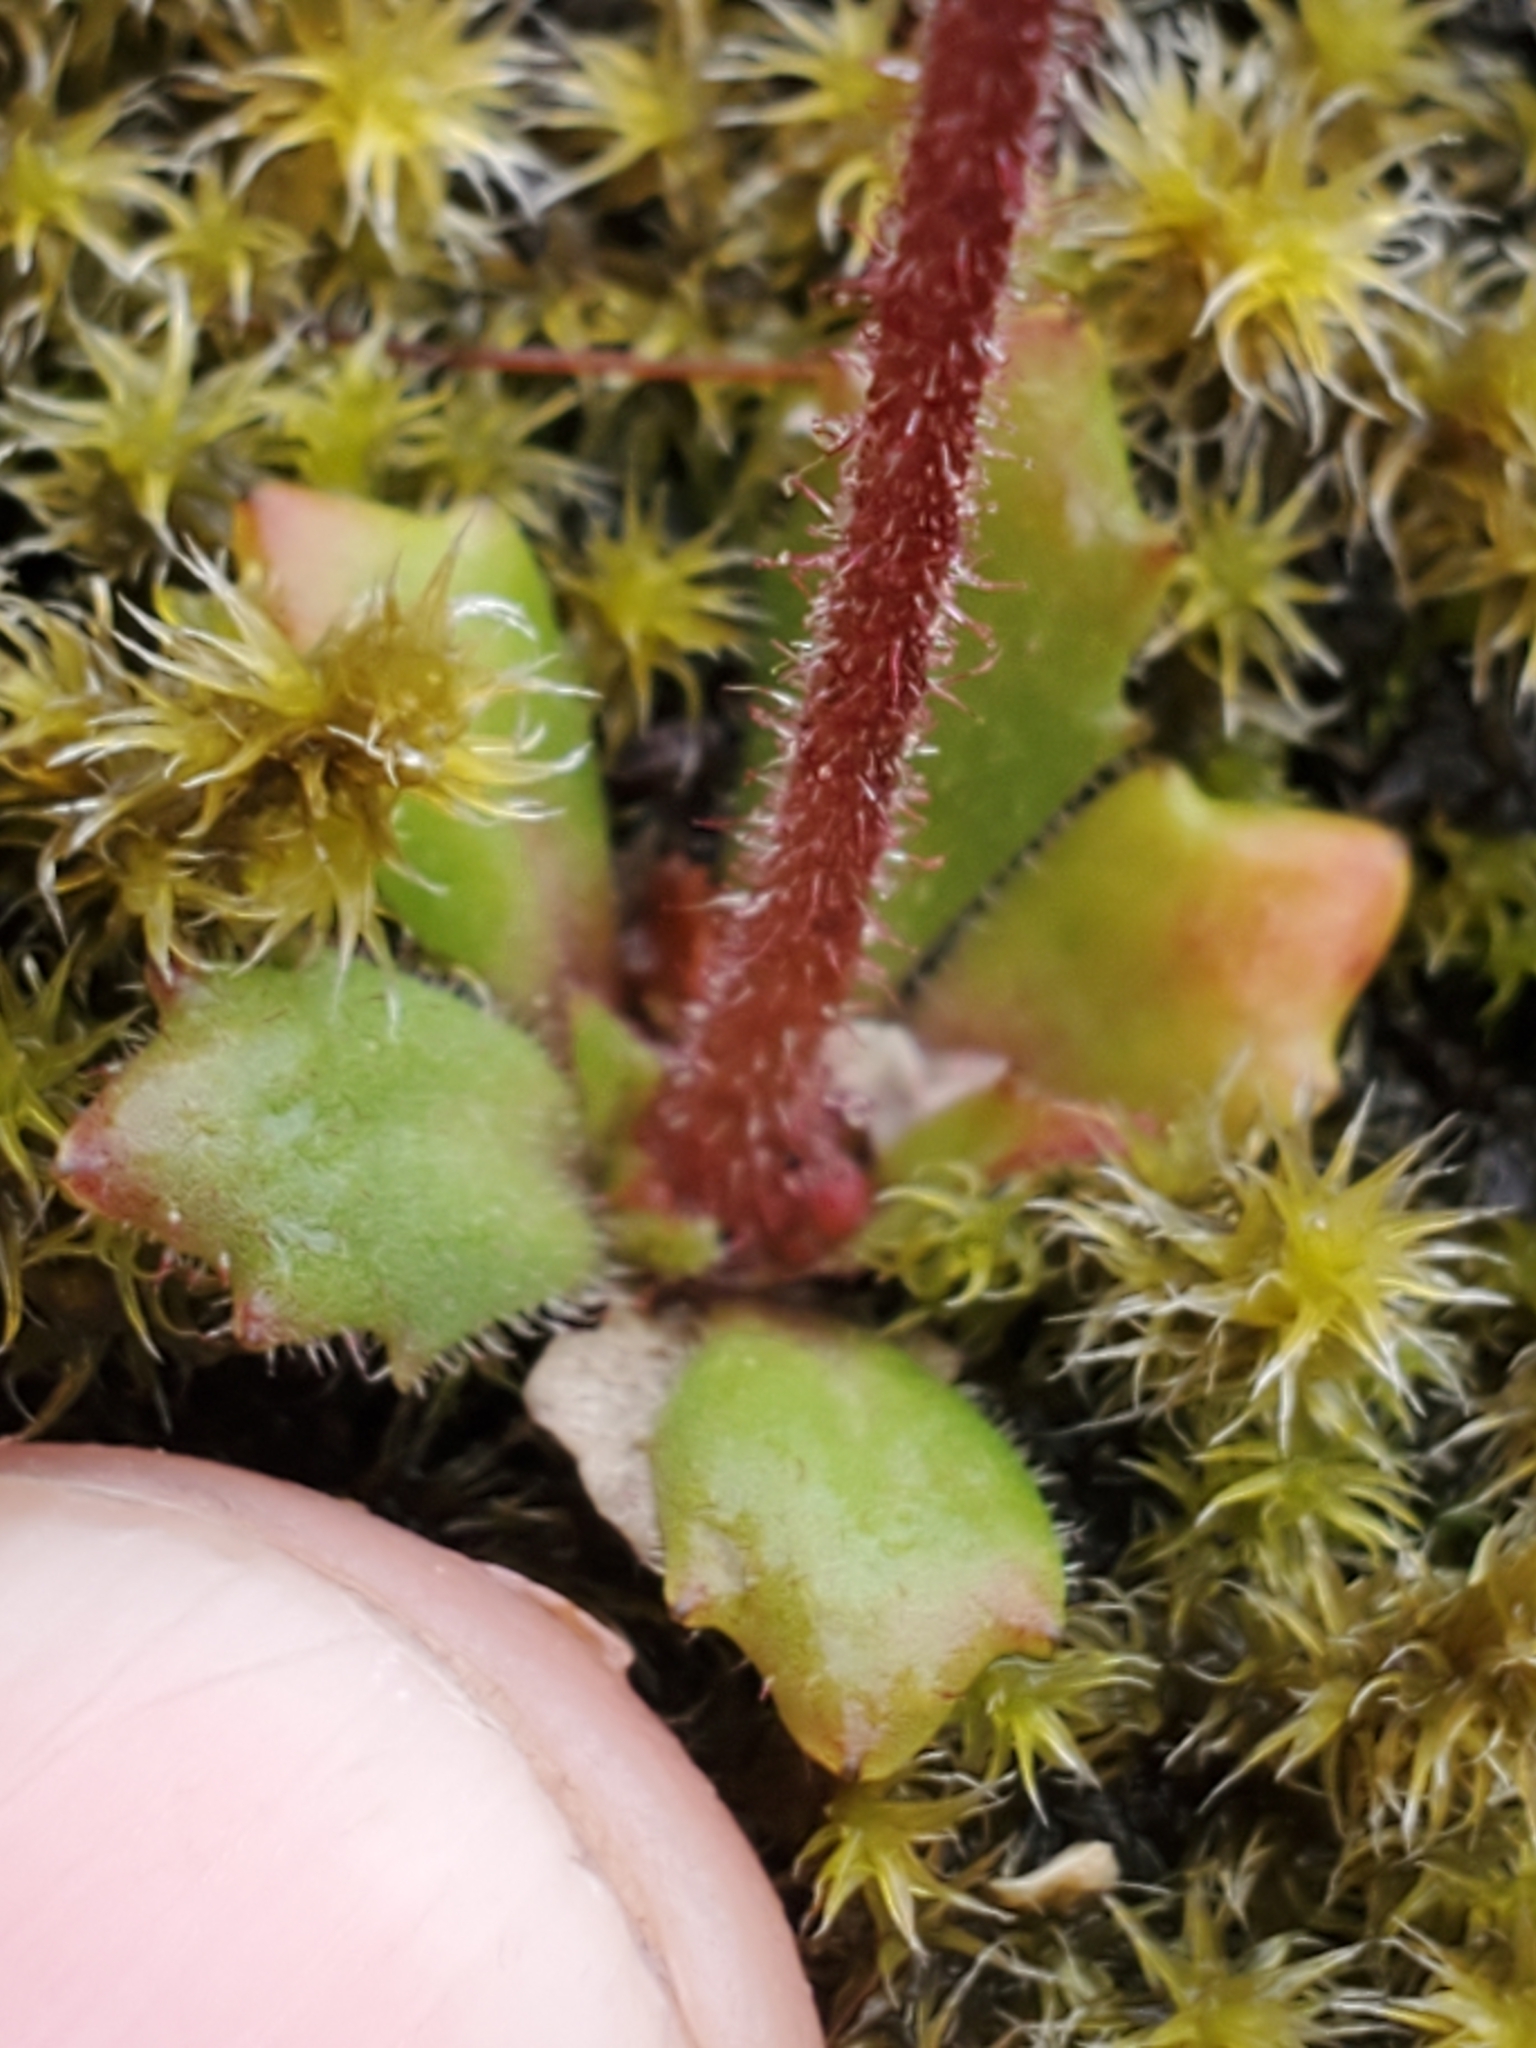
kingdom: Plantae
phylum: Tracheophyta
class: Magnoliopsida
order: Saxifragales
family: Saxifragaceae
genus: Micranthes
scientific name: Micranthes ferruginea
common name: Rusty saxifrage
